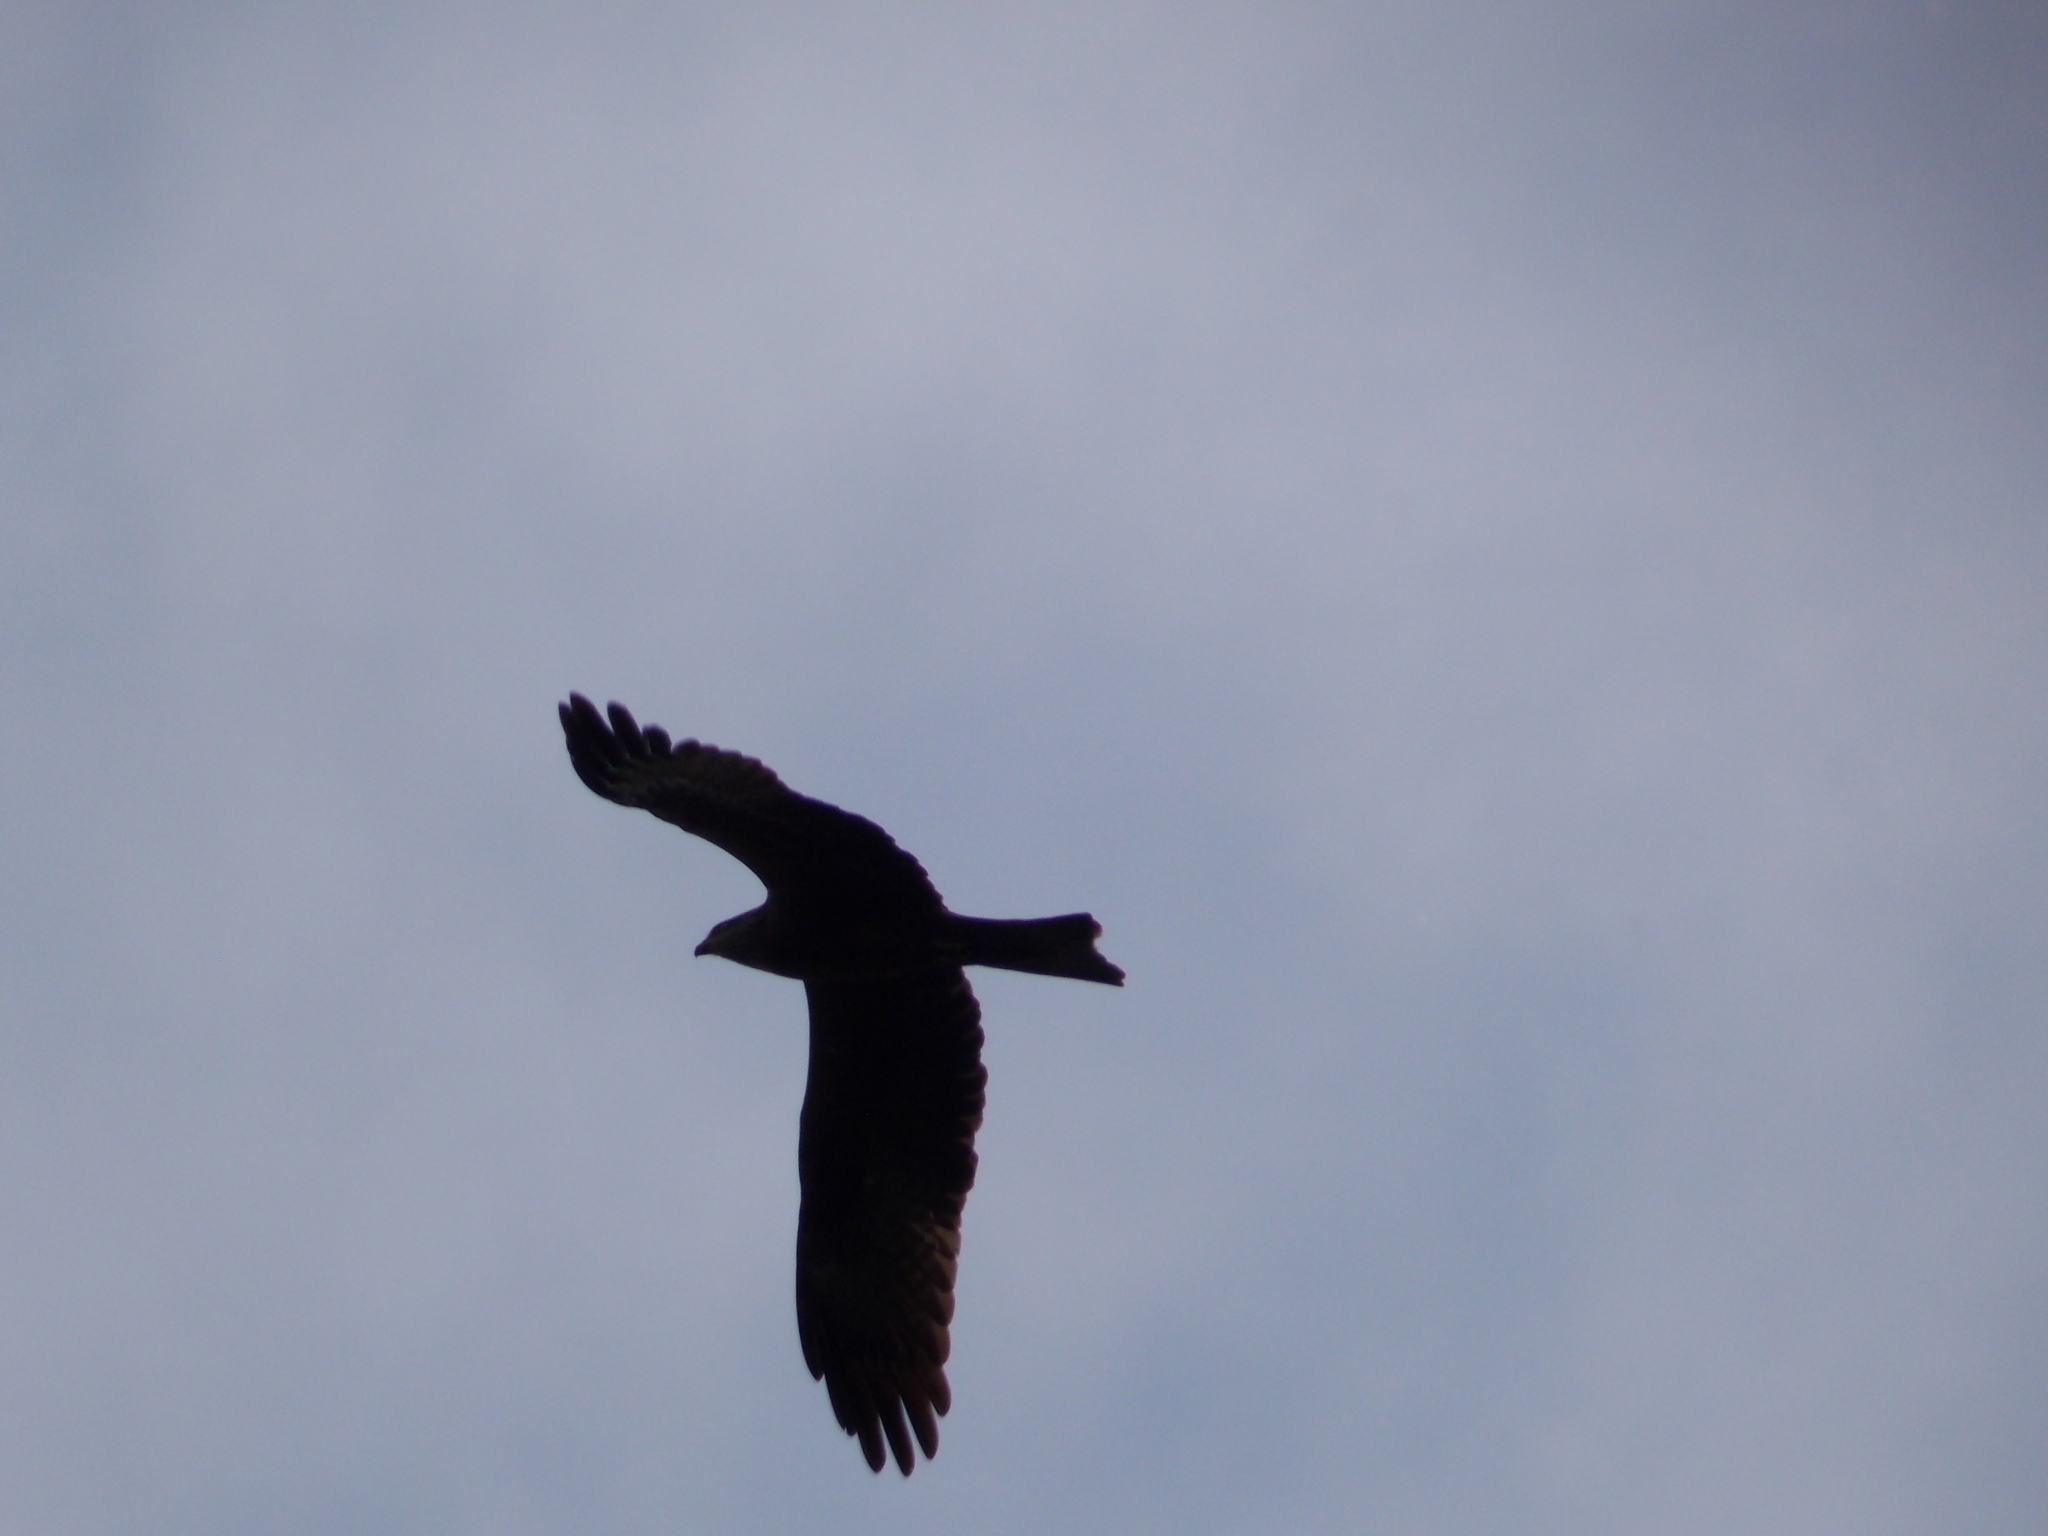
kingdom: Animalia
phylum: Chordata
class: Aves
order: Accipitriformes
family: Accipitridae
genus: Milvus
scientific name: Milvus migrans
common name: Black kite
